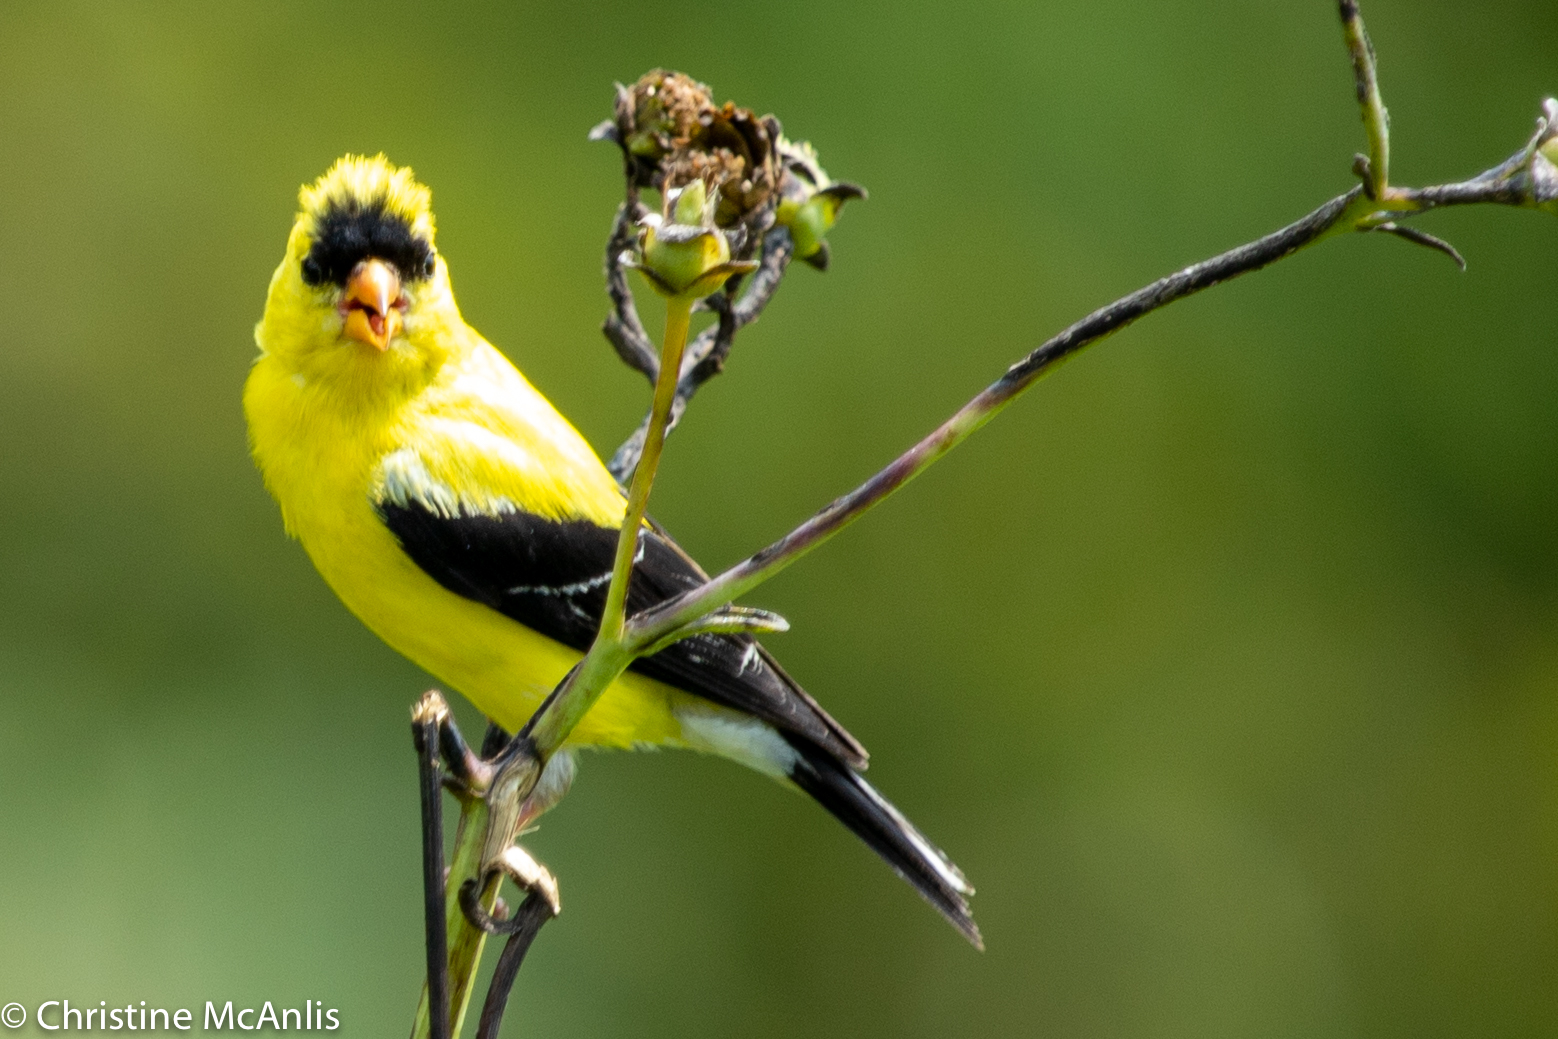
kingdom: Animalia
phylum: Chordata
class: Aves
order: Passeriformes
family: Fringillidae
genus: Spinus
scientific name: Spinus tristis
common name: American goldfinch
